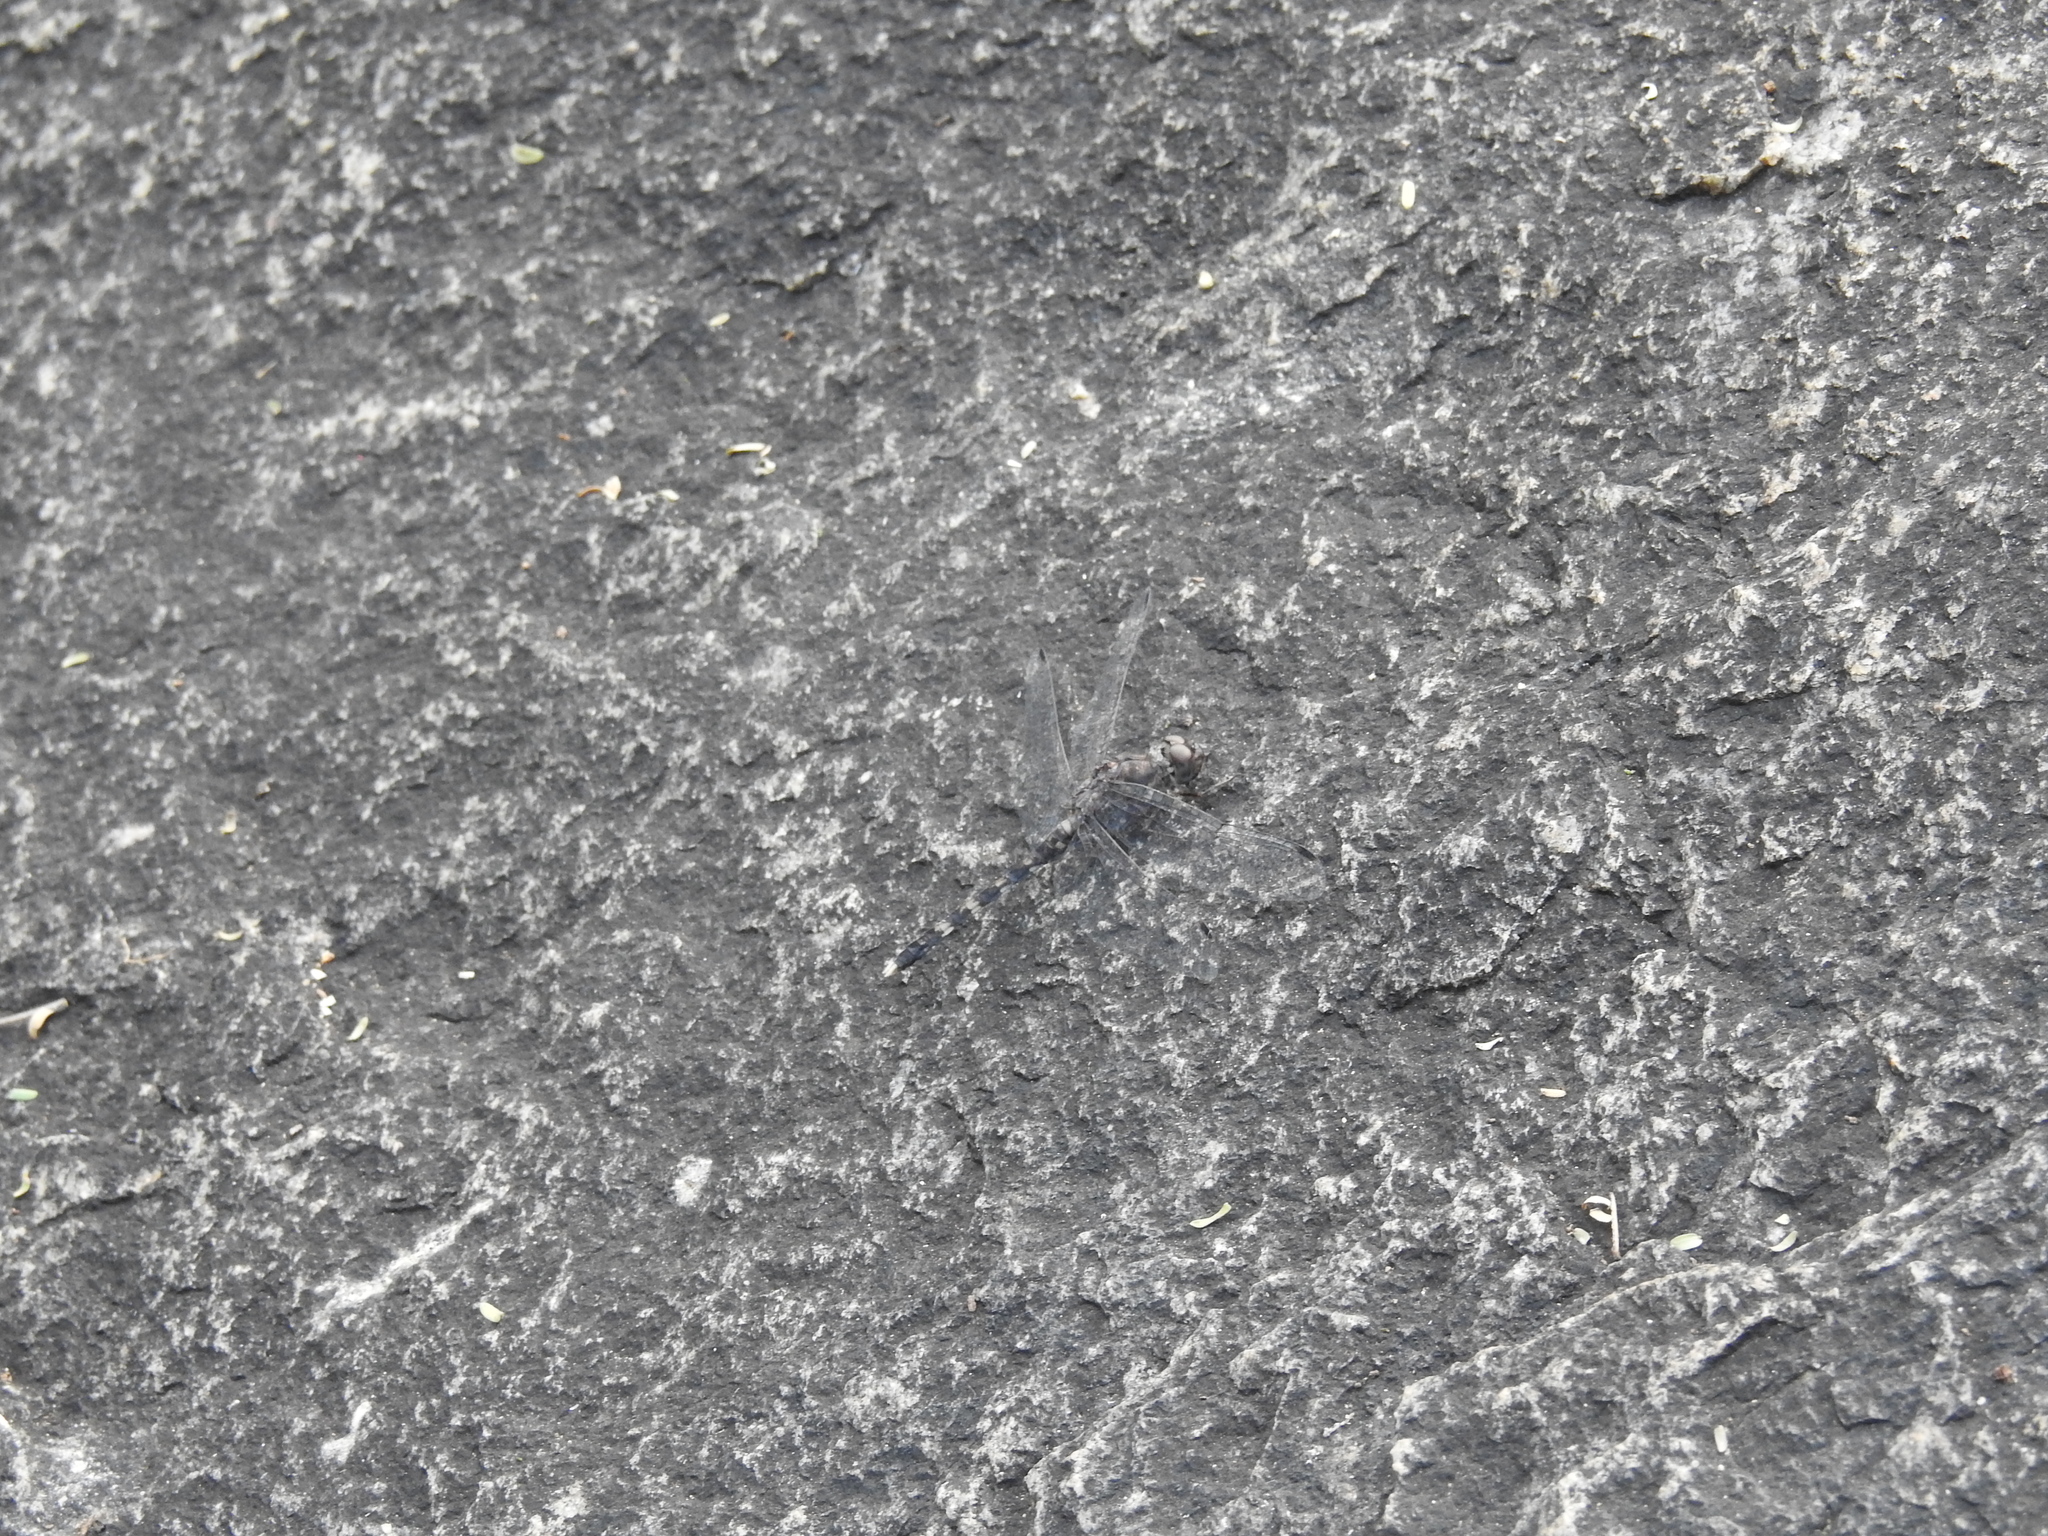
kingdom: Animalia
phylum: Arthropoda
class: Insecta
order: Odonata
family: Libellulidae
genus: Bradinopyga
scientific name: Bradinopyga geminata
